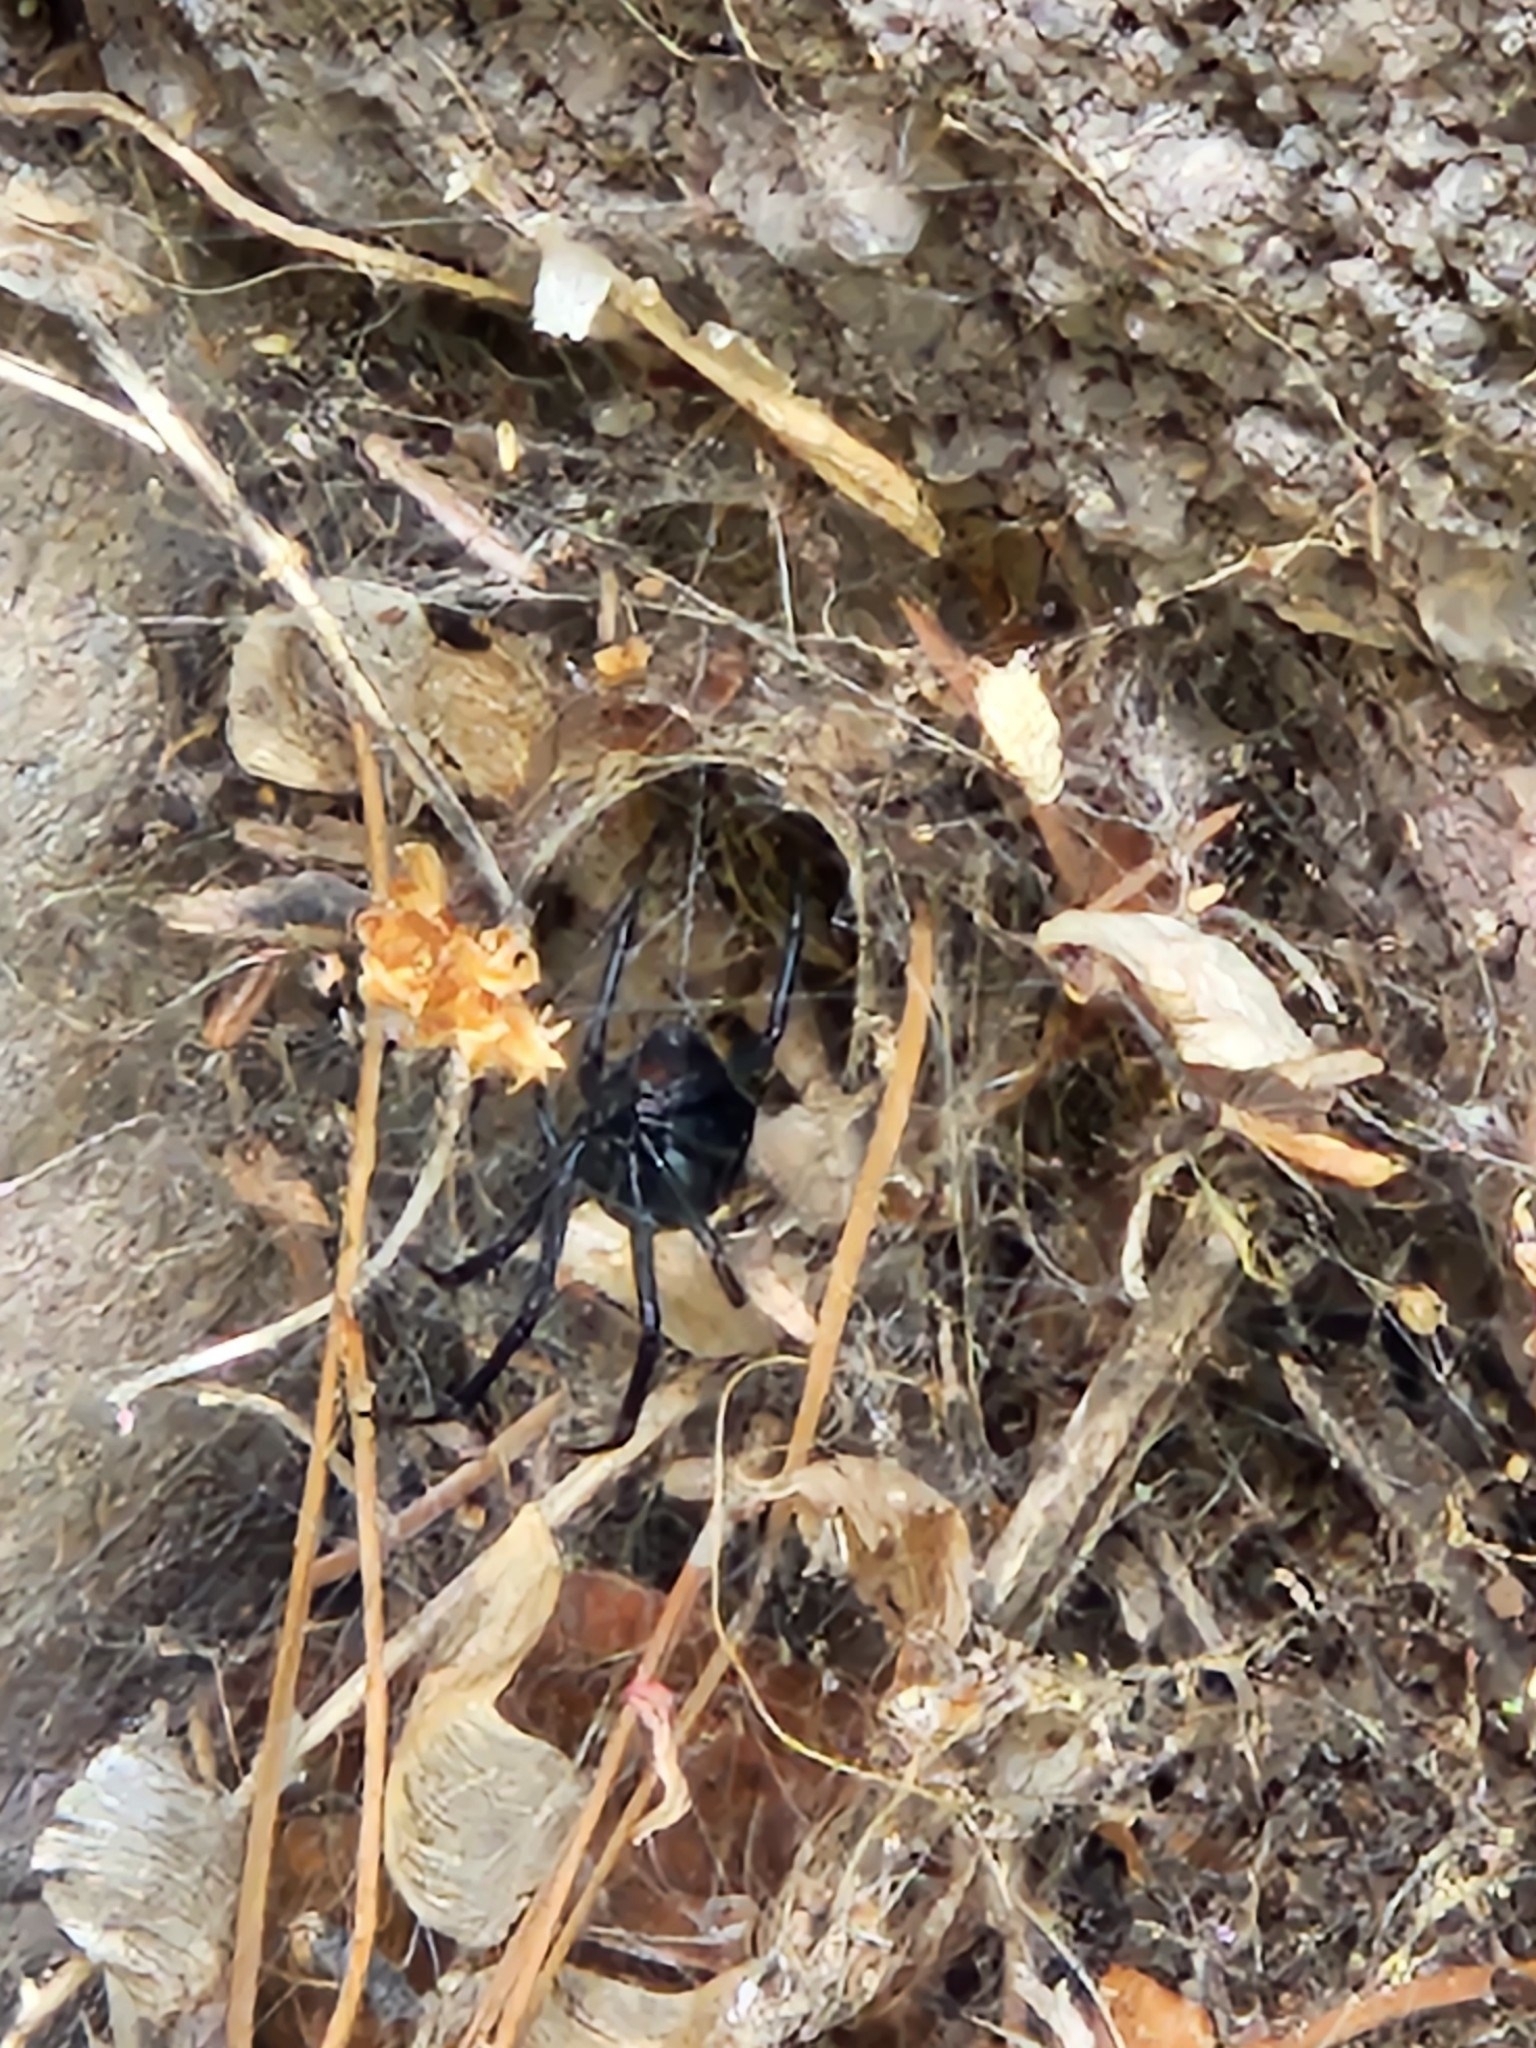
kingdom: Animalia
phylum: Arthropoda
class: Arachnida
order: Araneae
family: Theridiidae
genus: Latrodectus
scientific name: Latrodectus hesperus
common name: Western black widow
